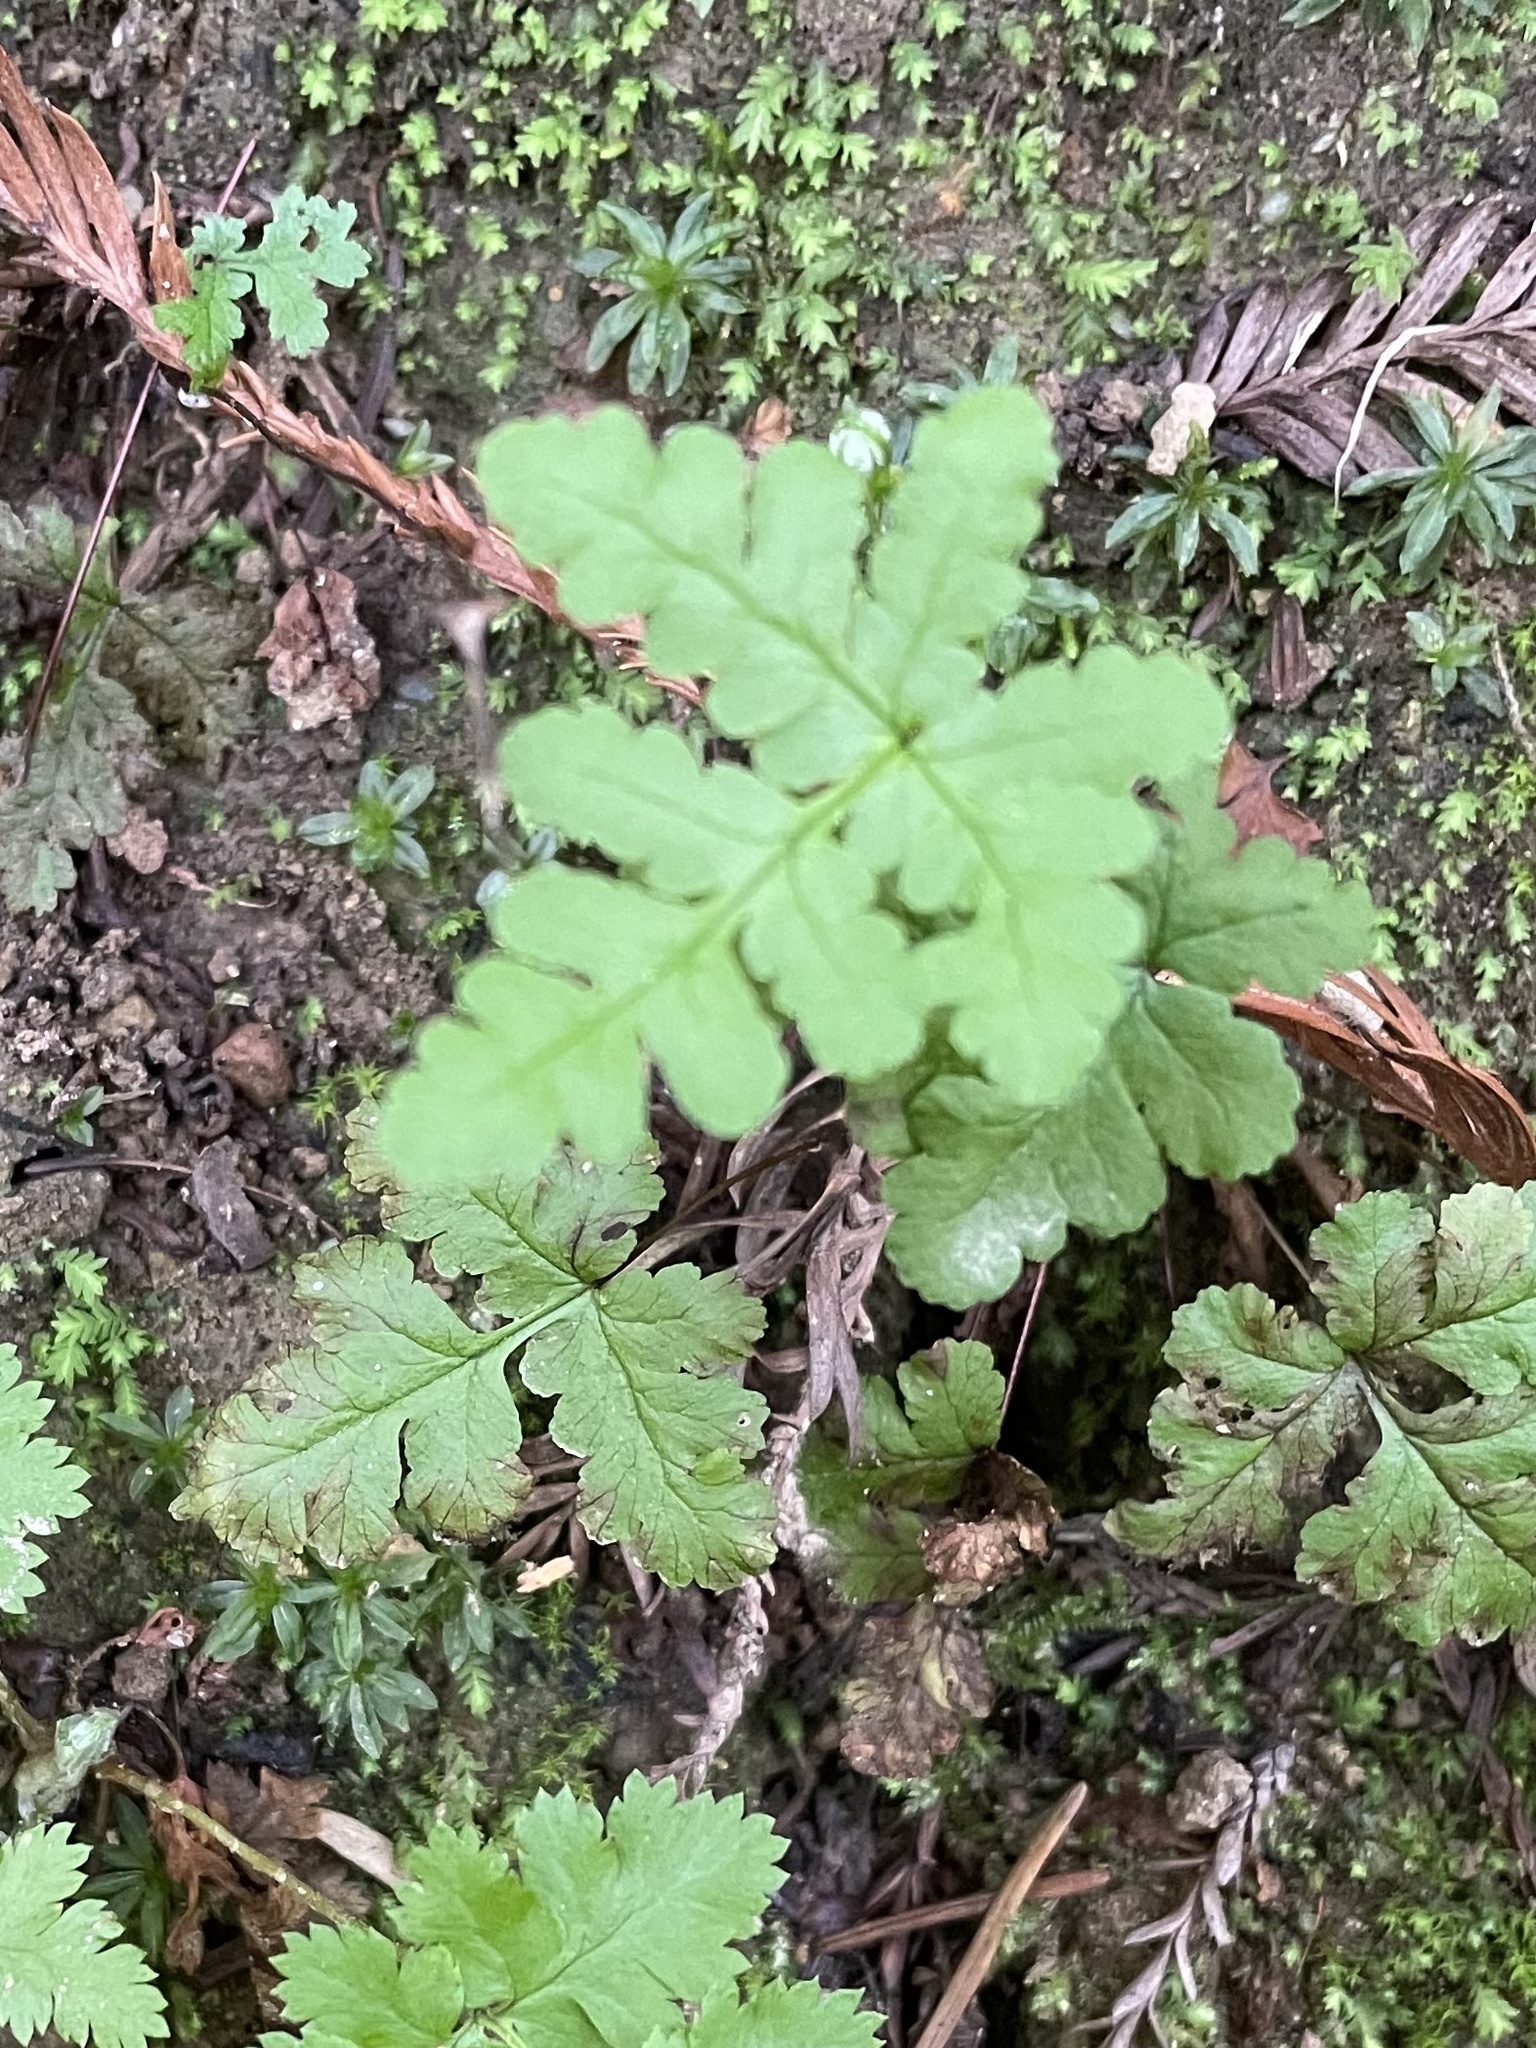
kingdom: Plantae
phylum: Tracheophyta
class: Polypodiopsida
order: Polypodiales
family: Pteridaceae
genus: Pentagramma
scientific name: Pentagramma triangularis
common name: Gold fern
